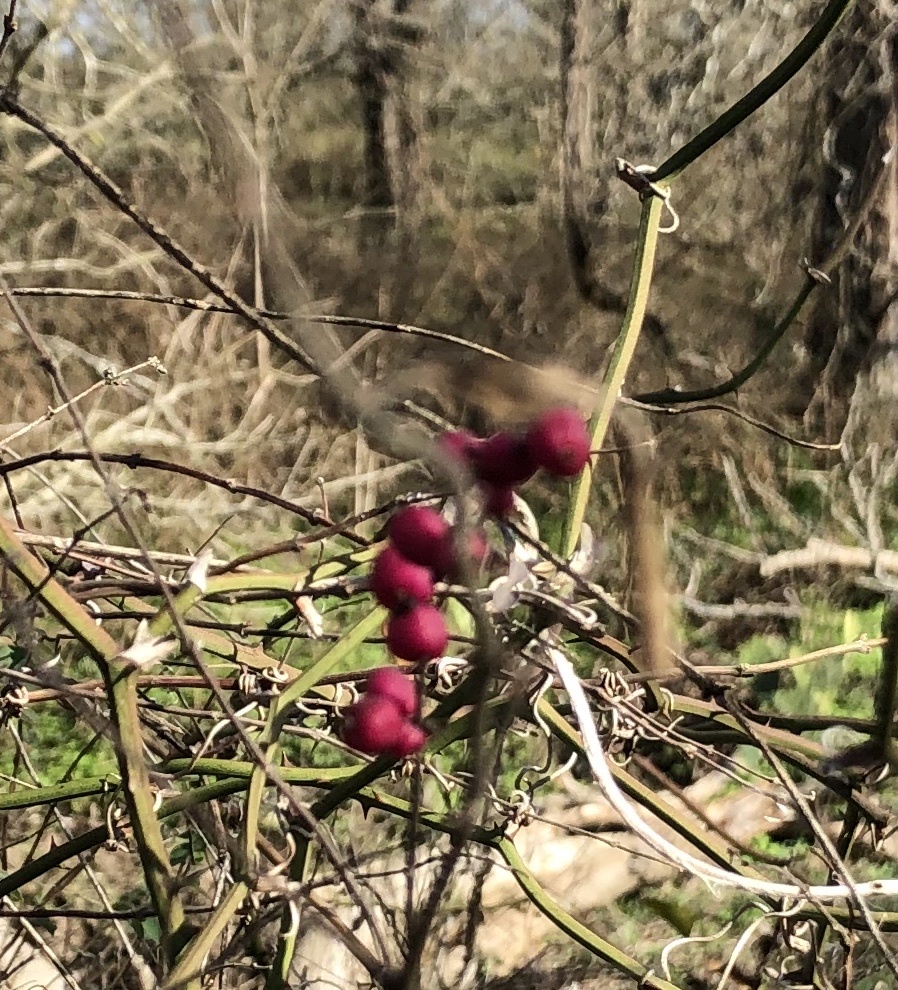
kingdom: Plantae
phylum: Tracheophyta
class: Magnoliopsida
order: Dipsacales
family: Caprifoliaceae
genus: Symphoricarpos
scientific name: Symphoricarpos orbiculatus
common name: Coralberry
